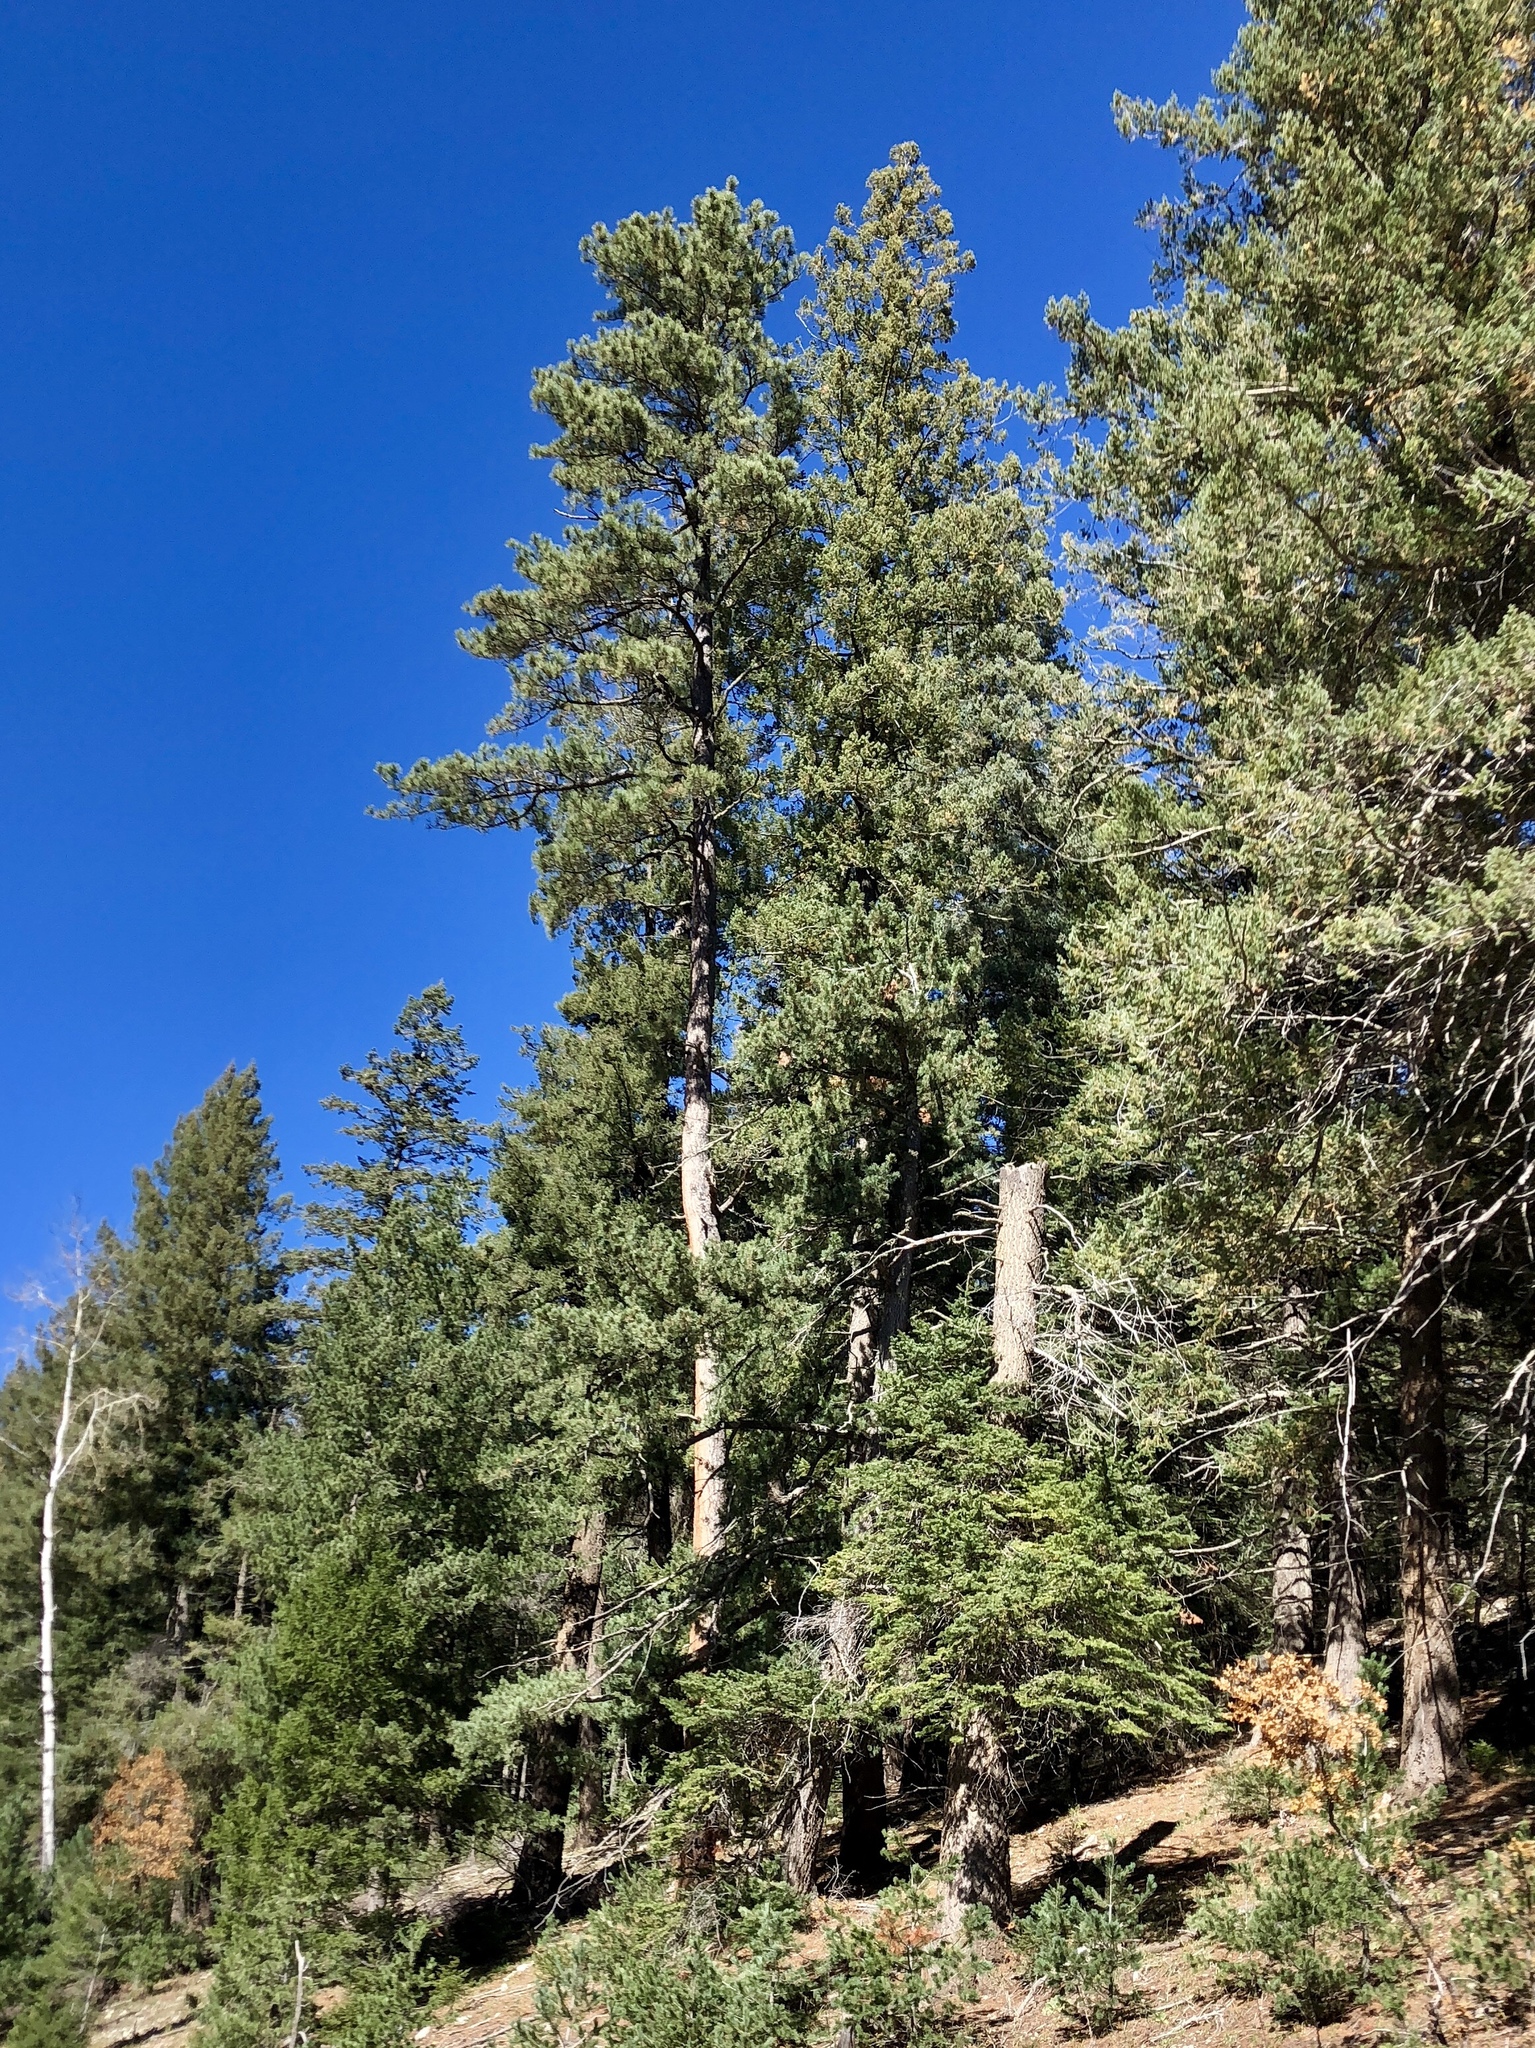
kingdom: Plantae
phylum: Tracheophyta
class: Pinopsida
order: Pinales
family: Pinaceae
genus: Pinus
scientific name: Pinus ponderosa
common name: Western yellow-pine
